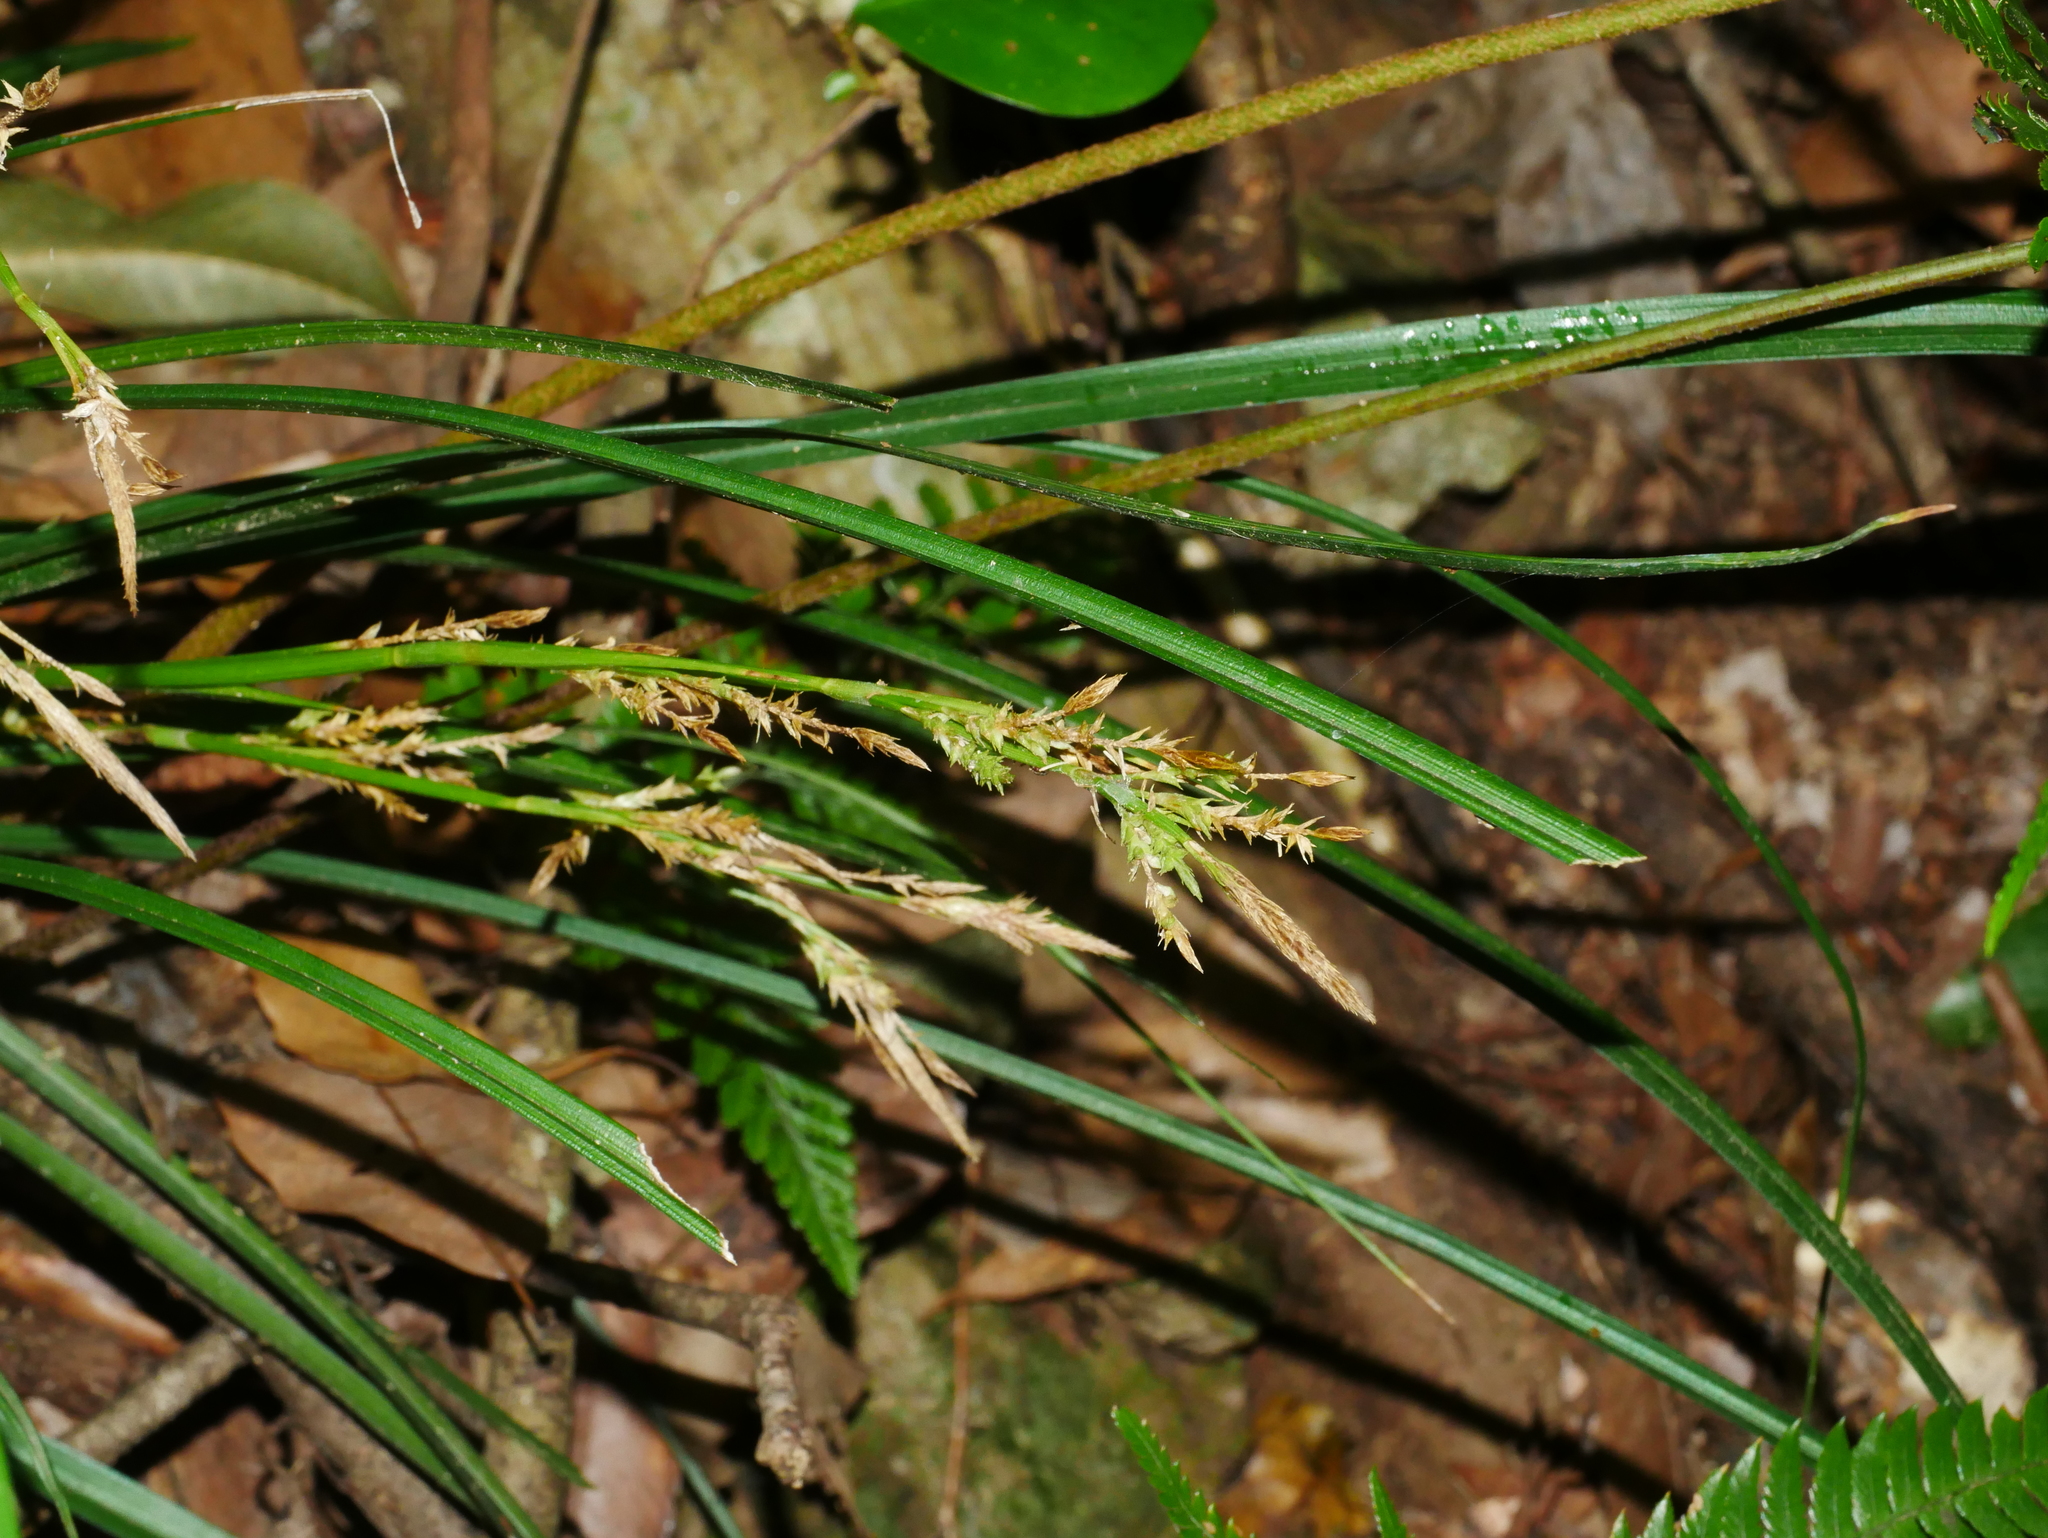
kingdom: Plantae
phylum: Tracheophyta
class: Liliopsida
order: Poales
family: Cyperaceae
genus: Carex
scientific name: Carex sociata
